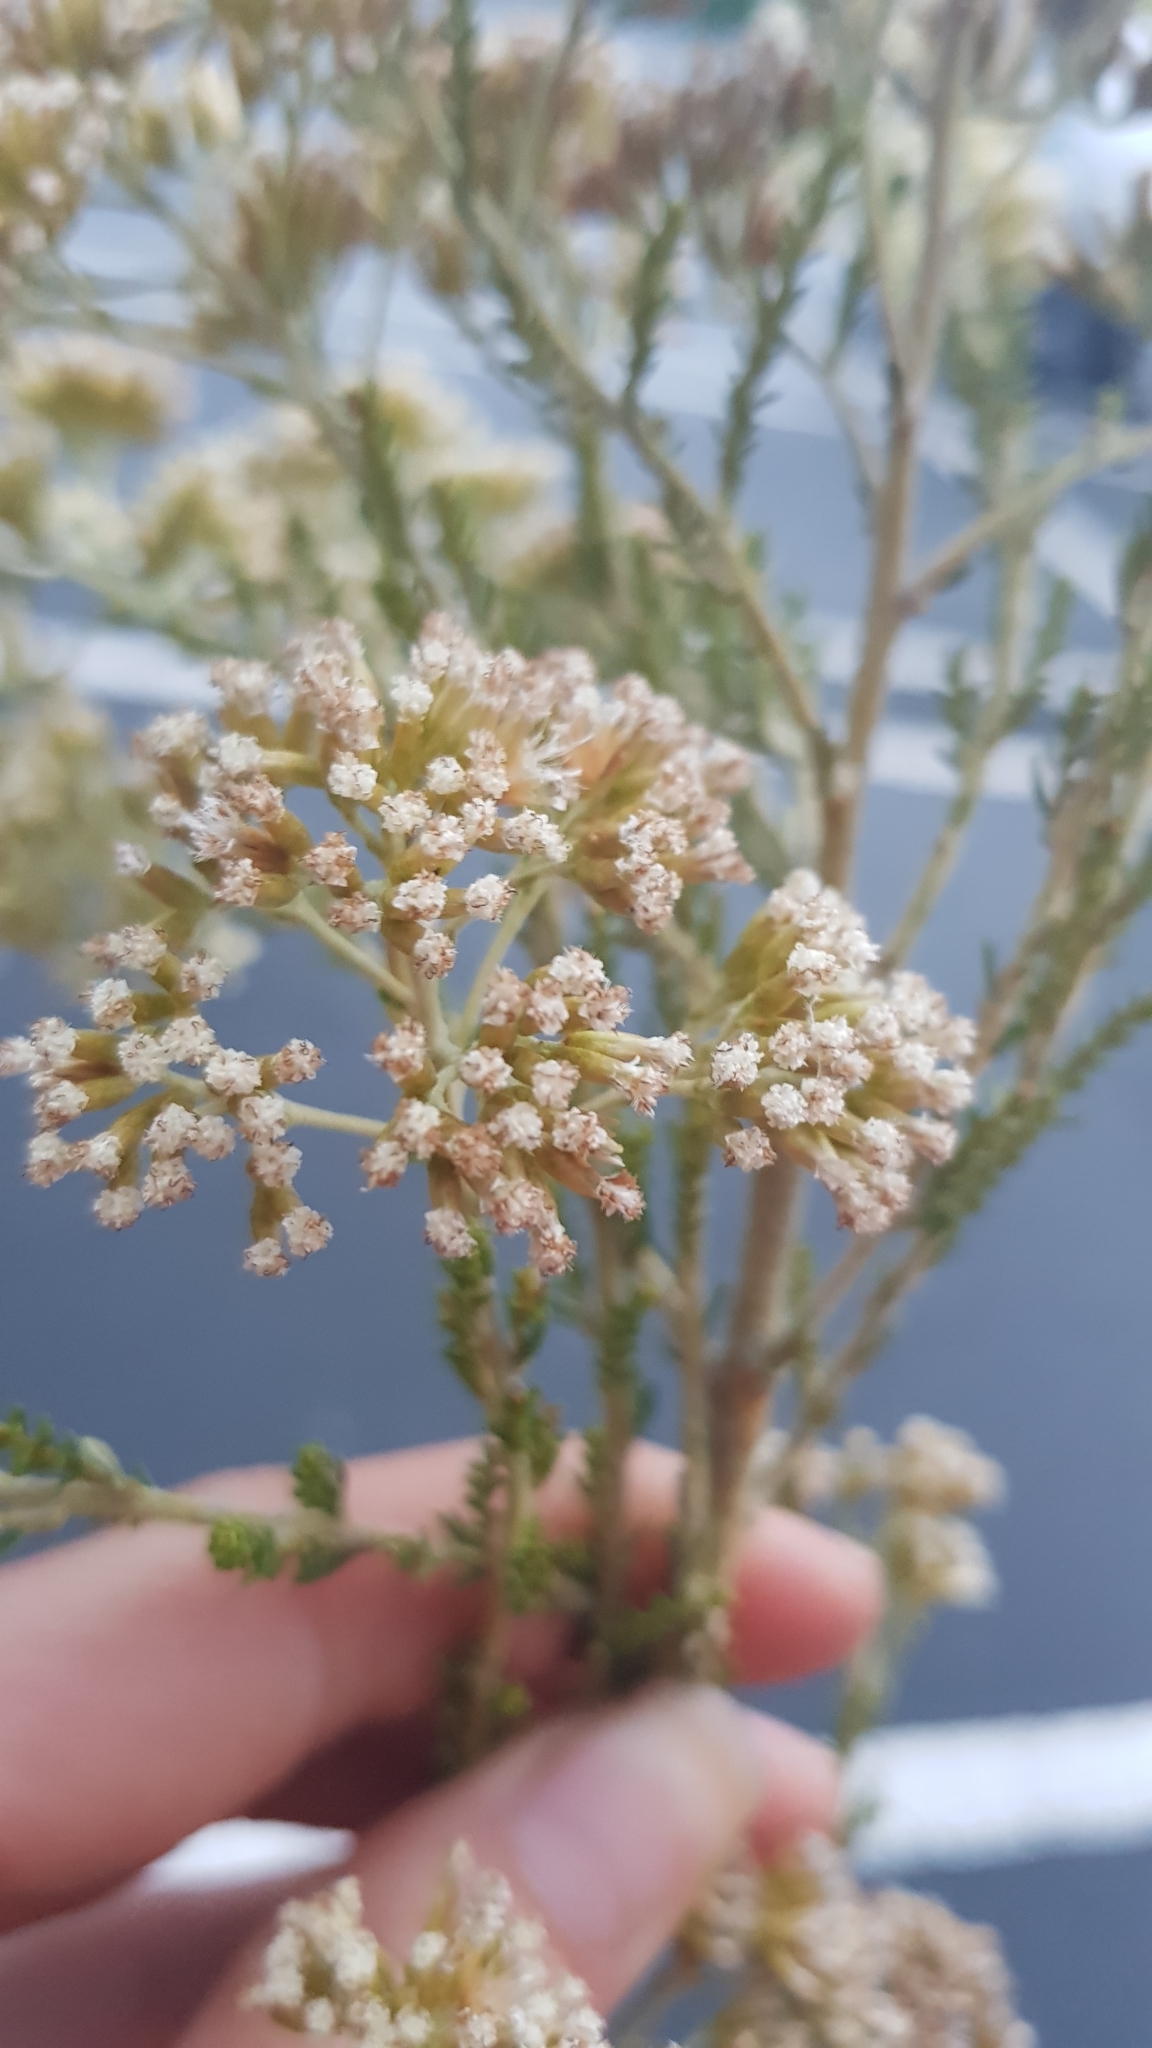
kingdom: Plantae
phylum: Tracheophyta
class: Magnoliopsida
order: Asterales
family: Asteraceae
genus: Ozothamnus
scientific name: Ozothamnus leptophyllus
